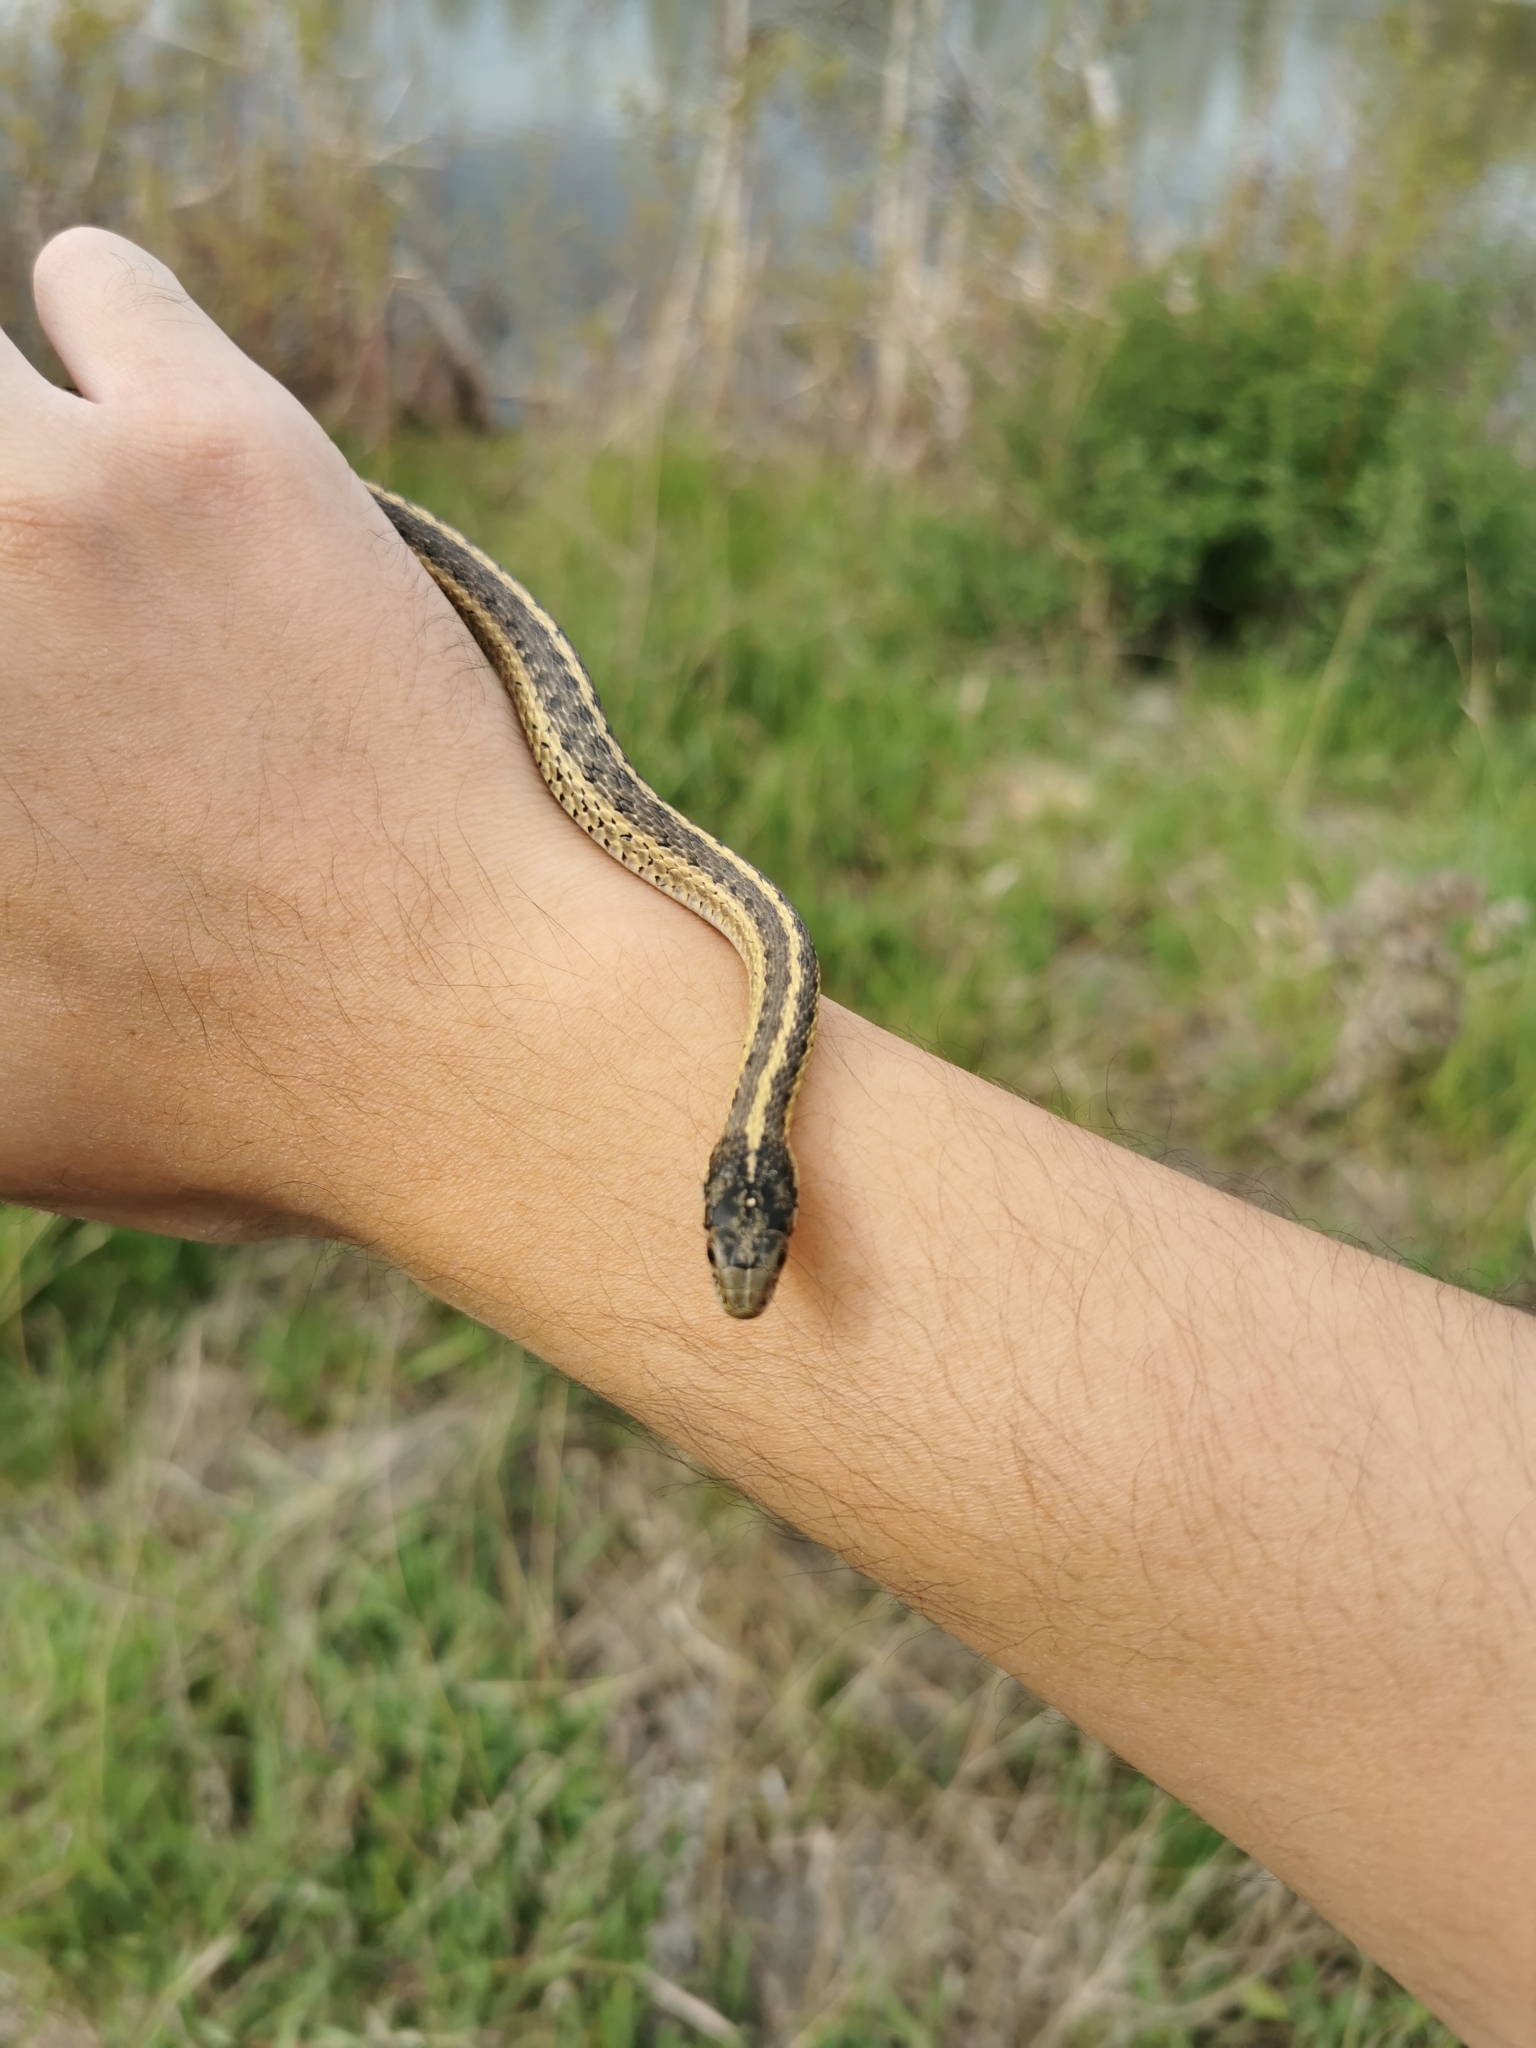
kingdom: Animalia
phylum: Chordata
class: Squamata
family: Colubridae
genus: Thamnophis
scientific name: Thamnophis elegans
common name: Western terrestrial garter snake
